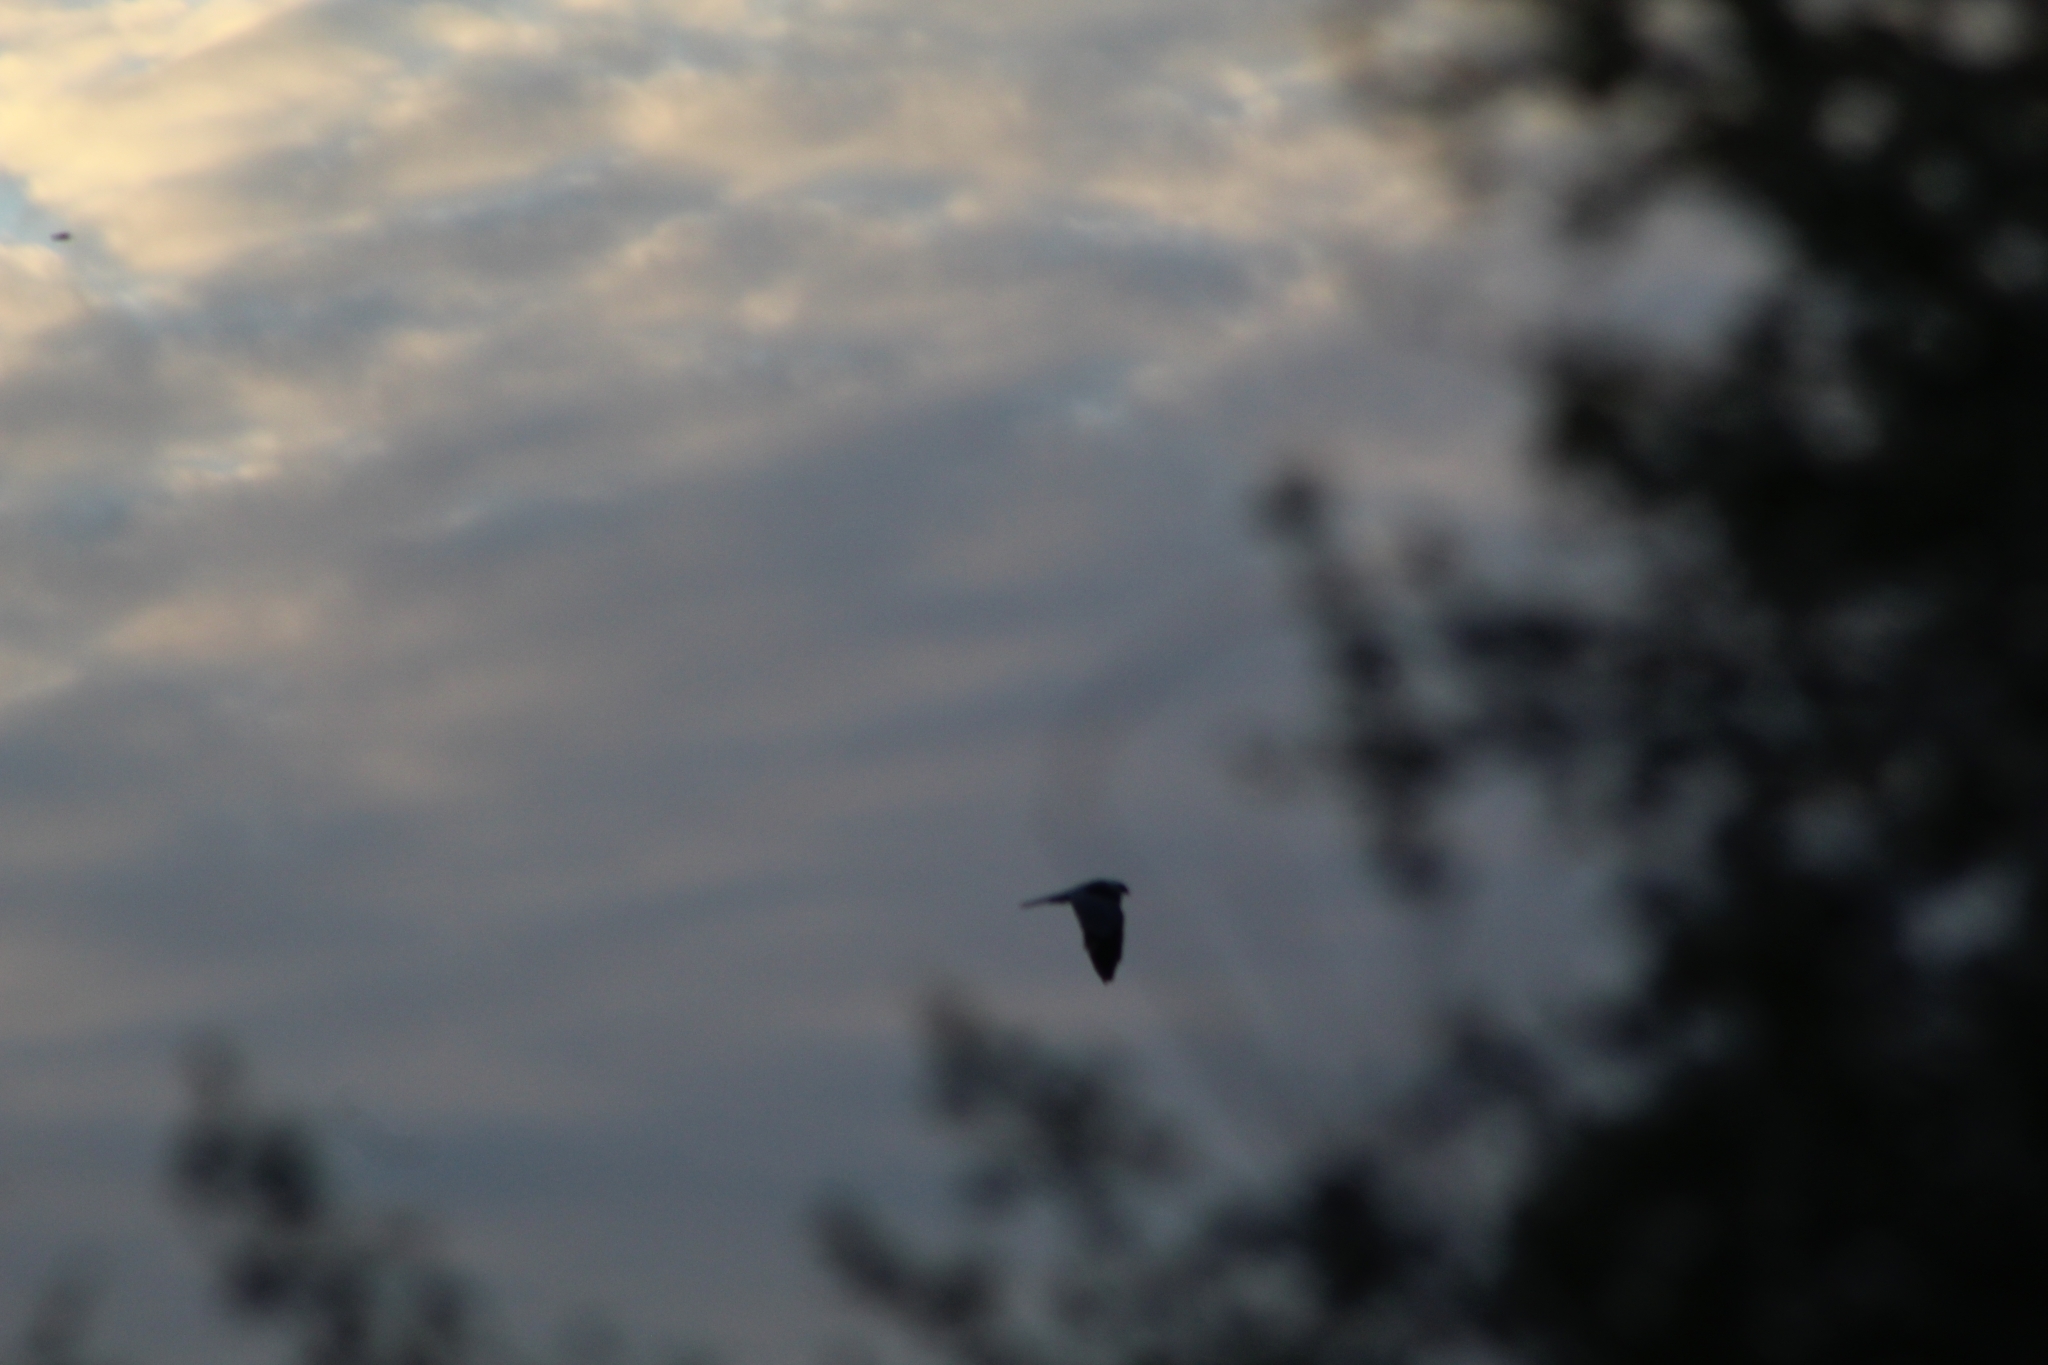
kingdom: Animalia
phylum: Chordata
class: Aves
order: Accipitriformes
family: Accipitridae
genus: Elanus
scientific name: Elanus leucurus
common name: White-tailed kite
